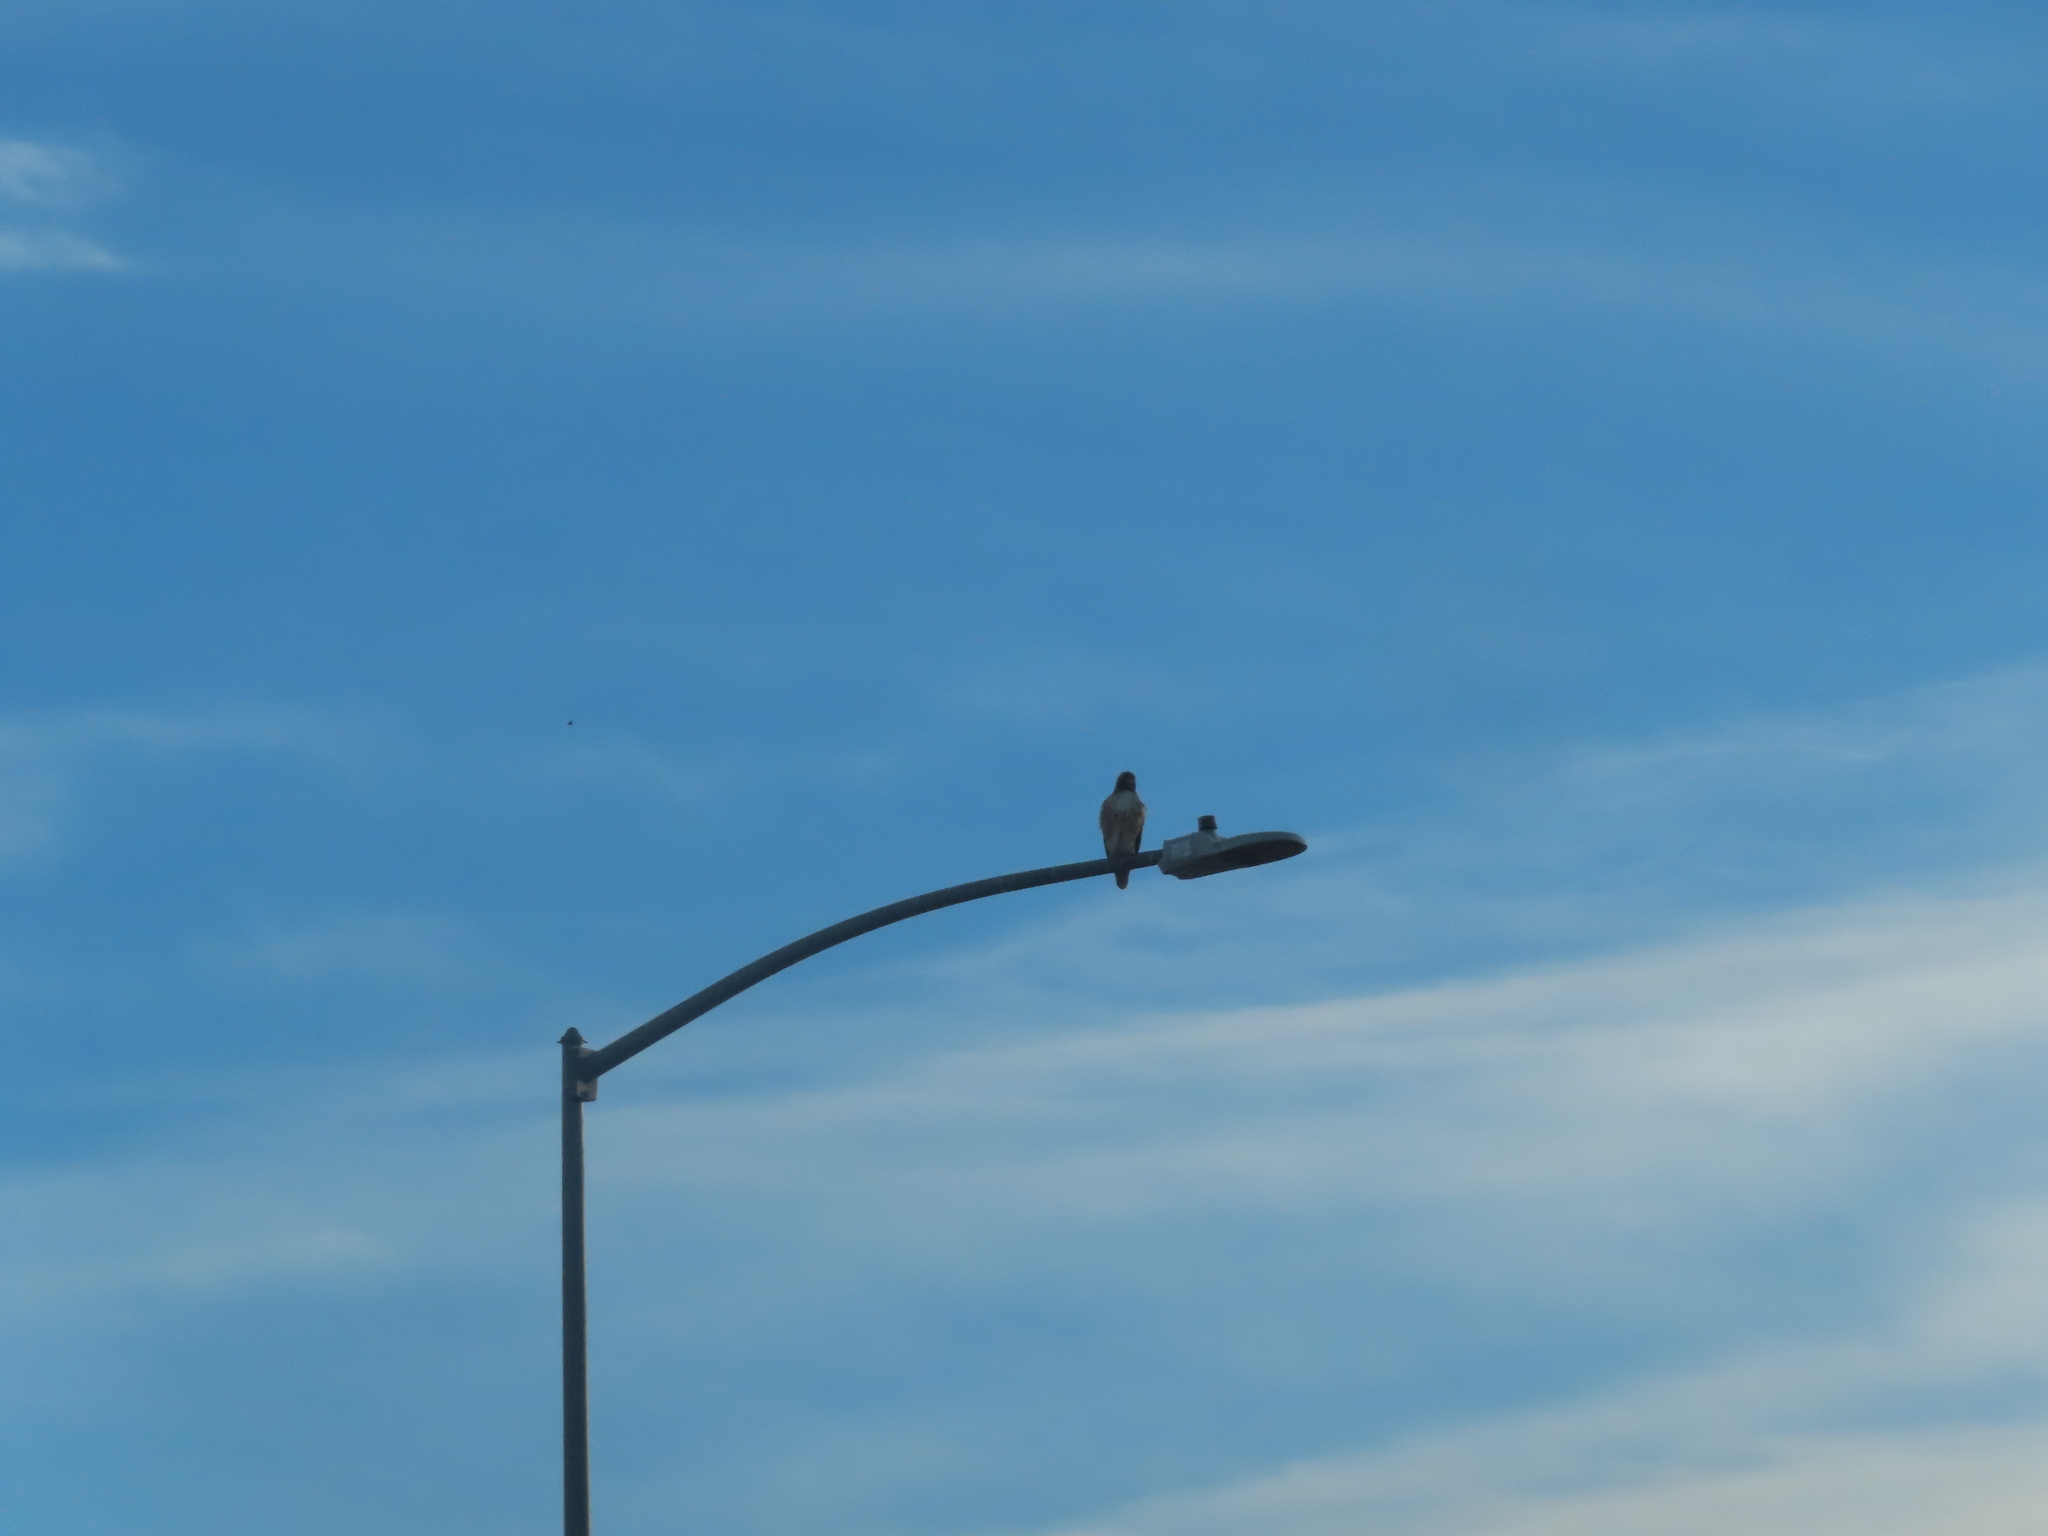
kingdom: Animalia
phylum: Chordata
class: Aves
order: Accipitriformes
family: Accipitridae
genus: Buteo
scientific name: Buteo jamaicensis
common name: Red-tailed hawk
